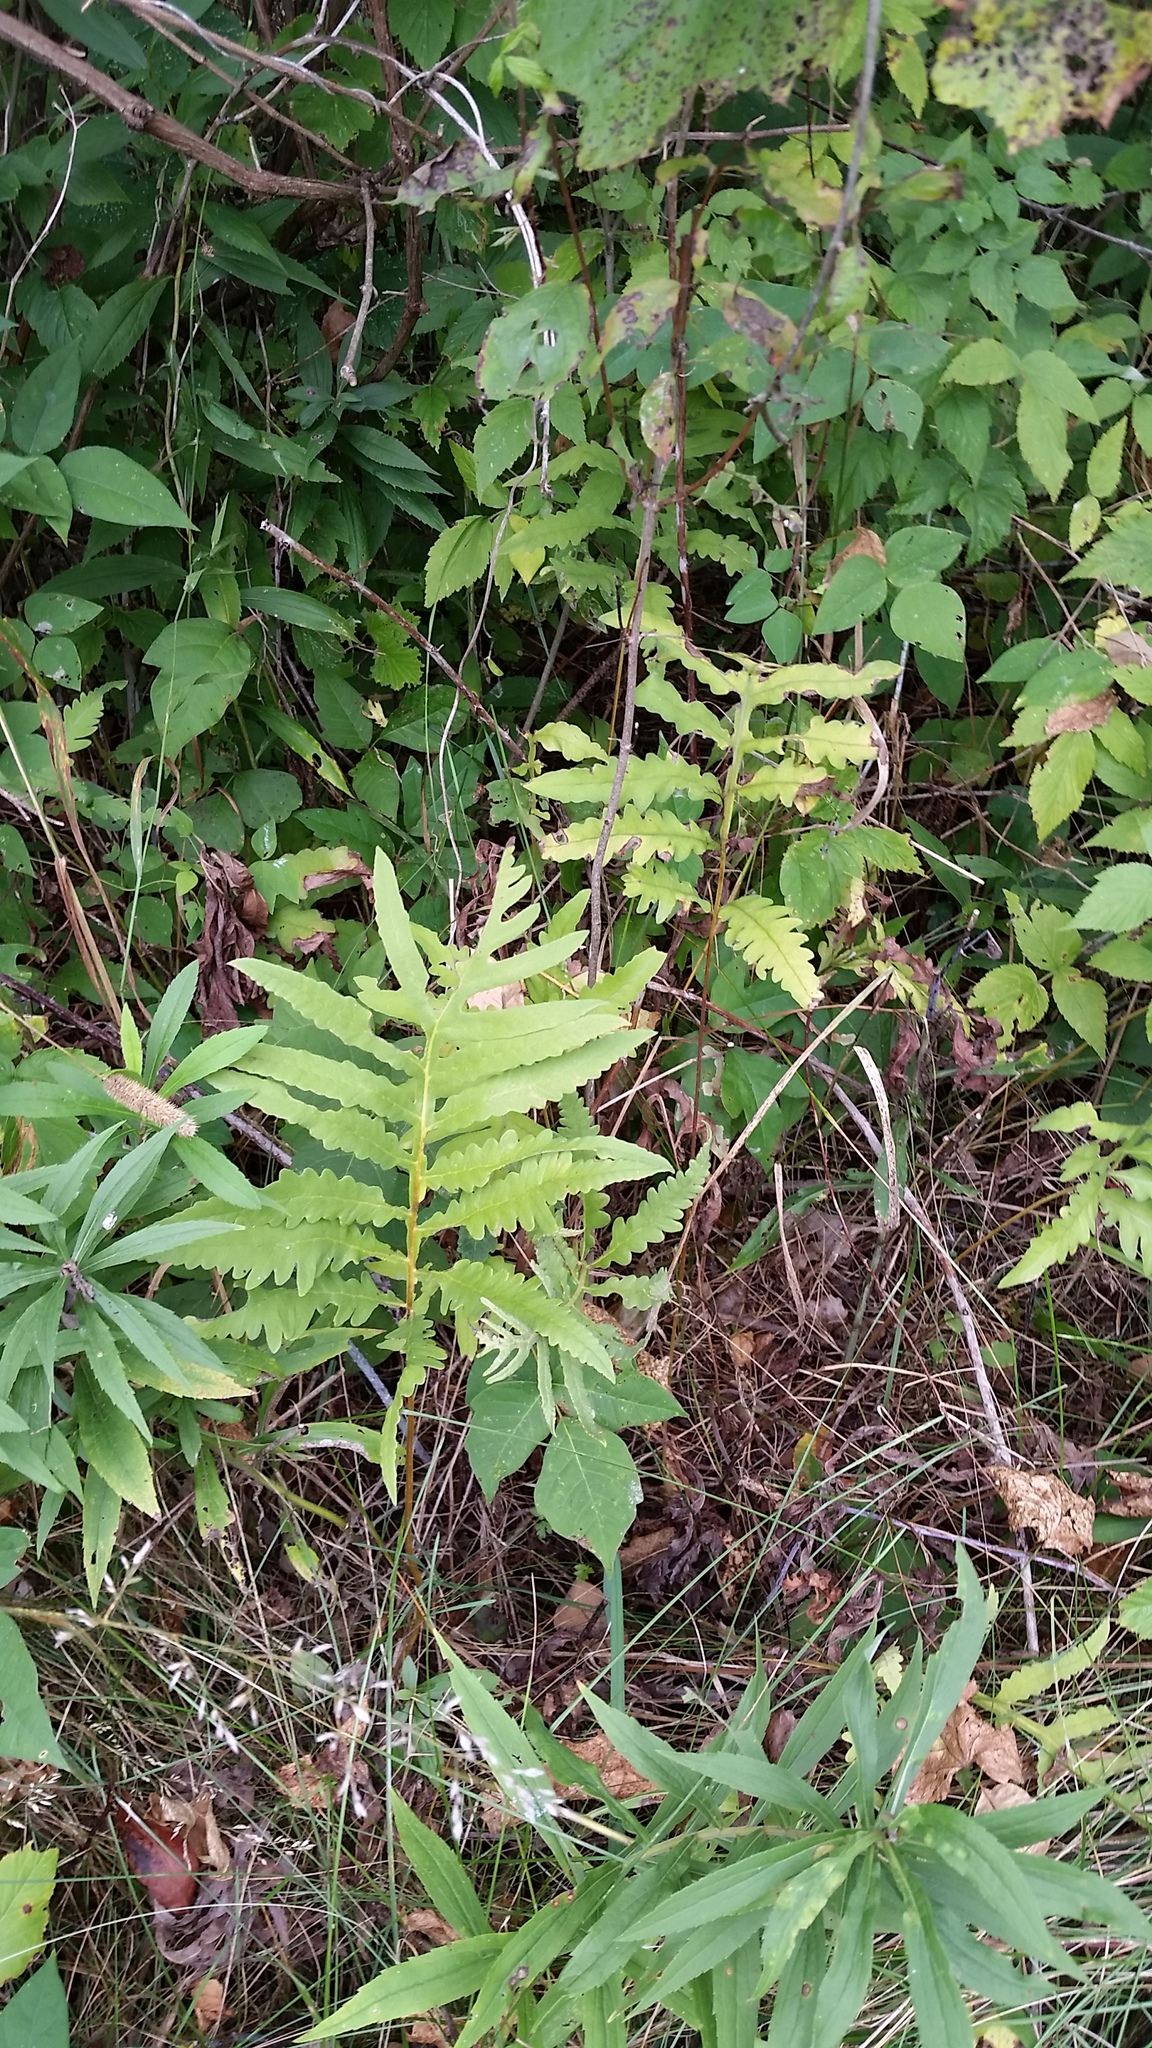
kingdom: Plantae
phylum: Tracheophyta
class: Polypodiopsida
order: Polypodiales
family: Onocleaceae
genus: Onoclea
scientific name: Onoclea sensibilis
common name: Sensitive fern
